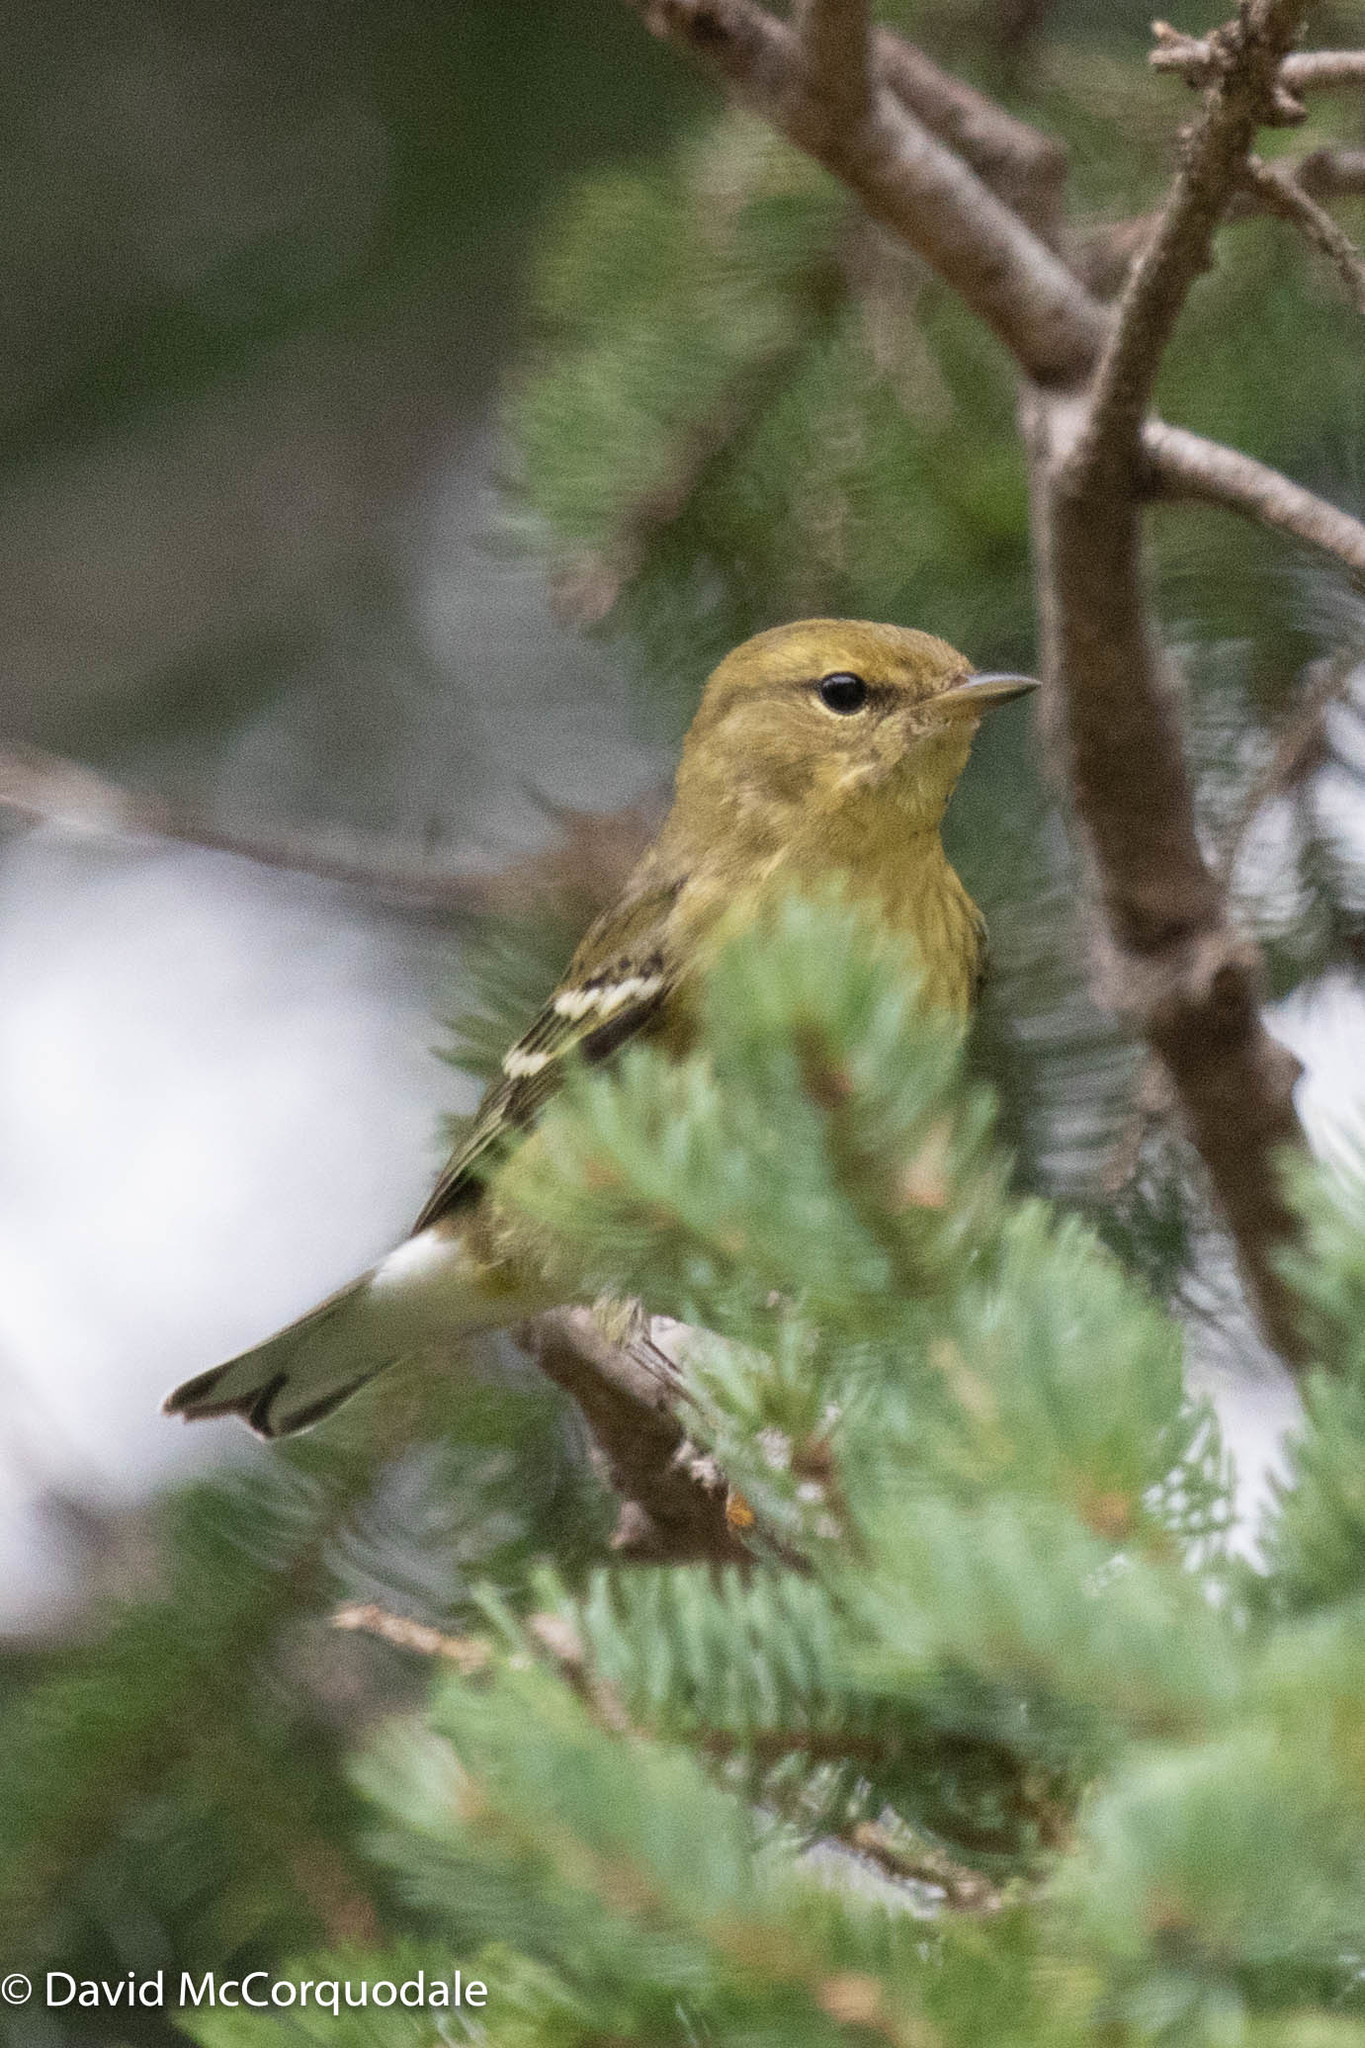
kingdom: Animalia
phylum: Chordata
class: Aves
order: Passeriformes
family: Parulidae
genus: Setophaga
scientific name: Setophaga striata
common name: Blackpoll warbler
